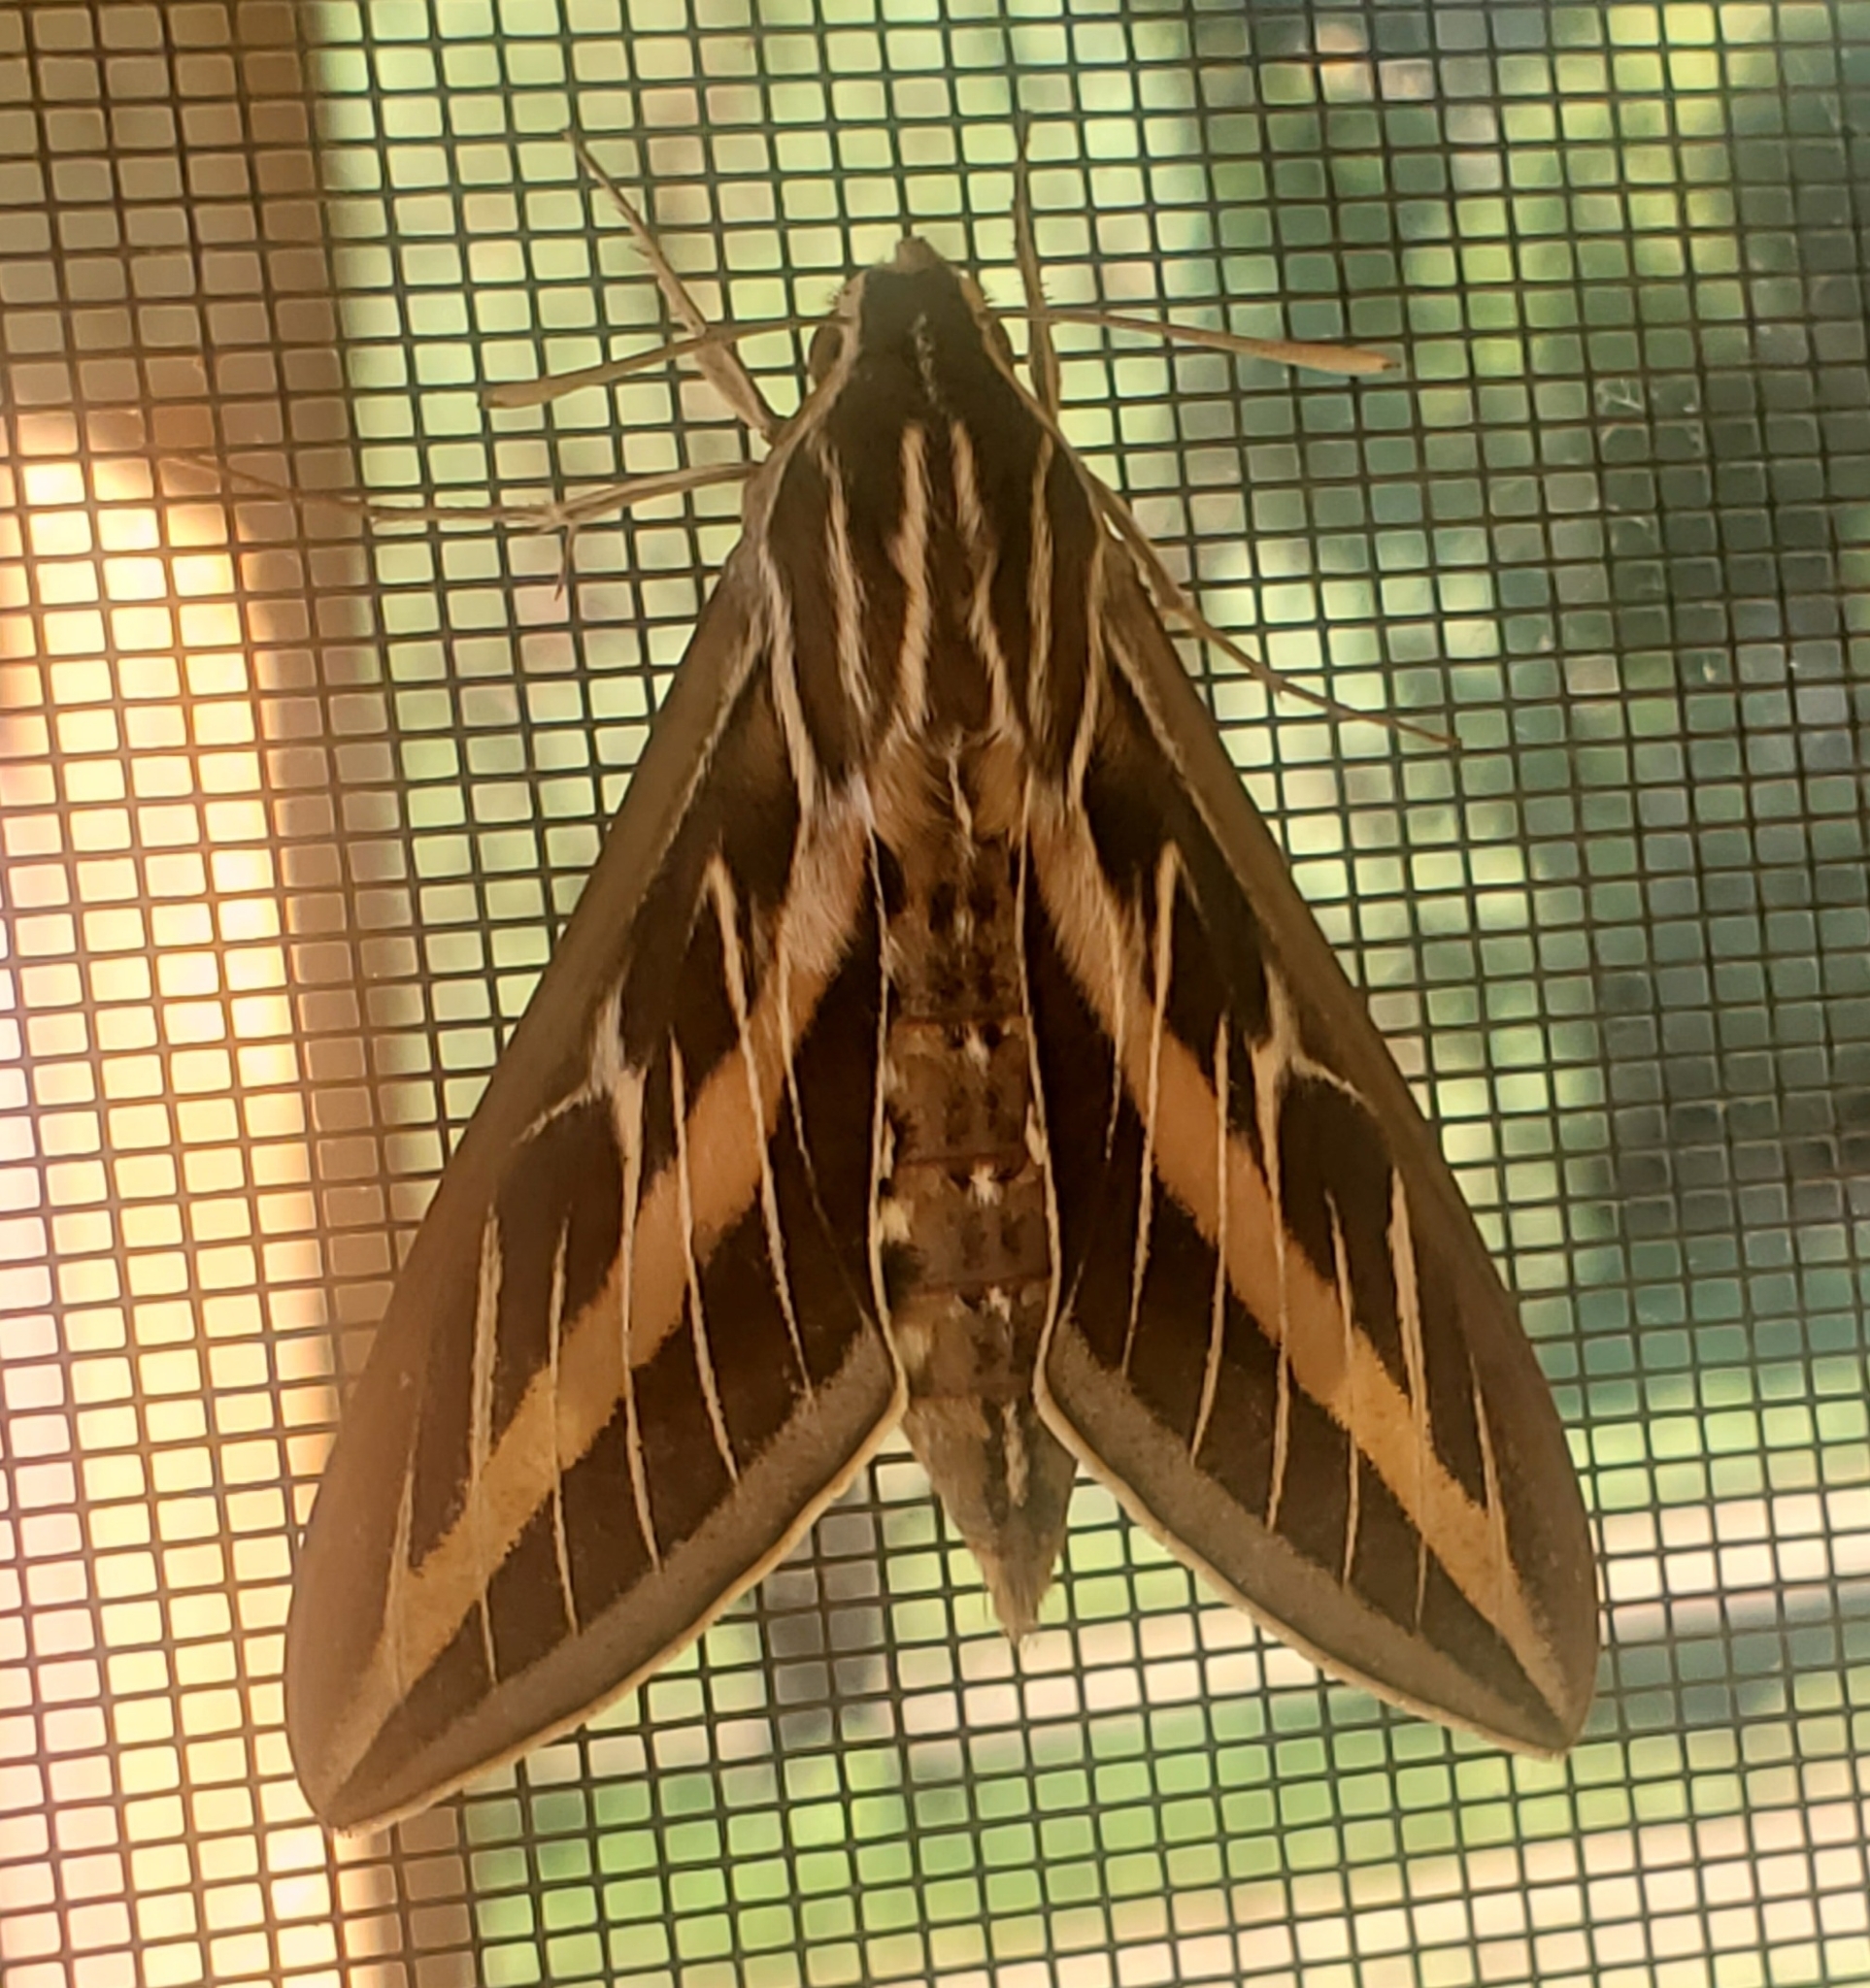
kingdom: Animalia
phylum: Arthropoda
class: Insecta
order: Lepidoptera
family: Sphingidae
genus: Hyles
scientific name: Hyles lineata
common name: White-lined sphinx
